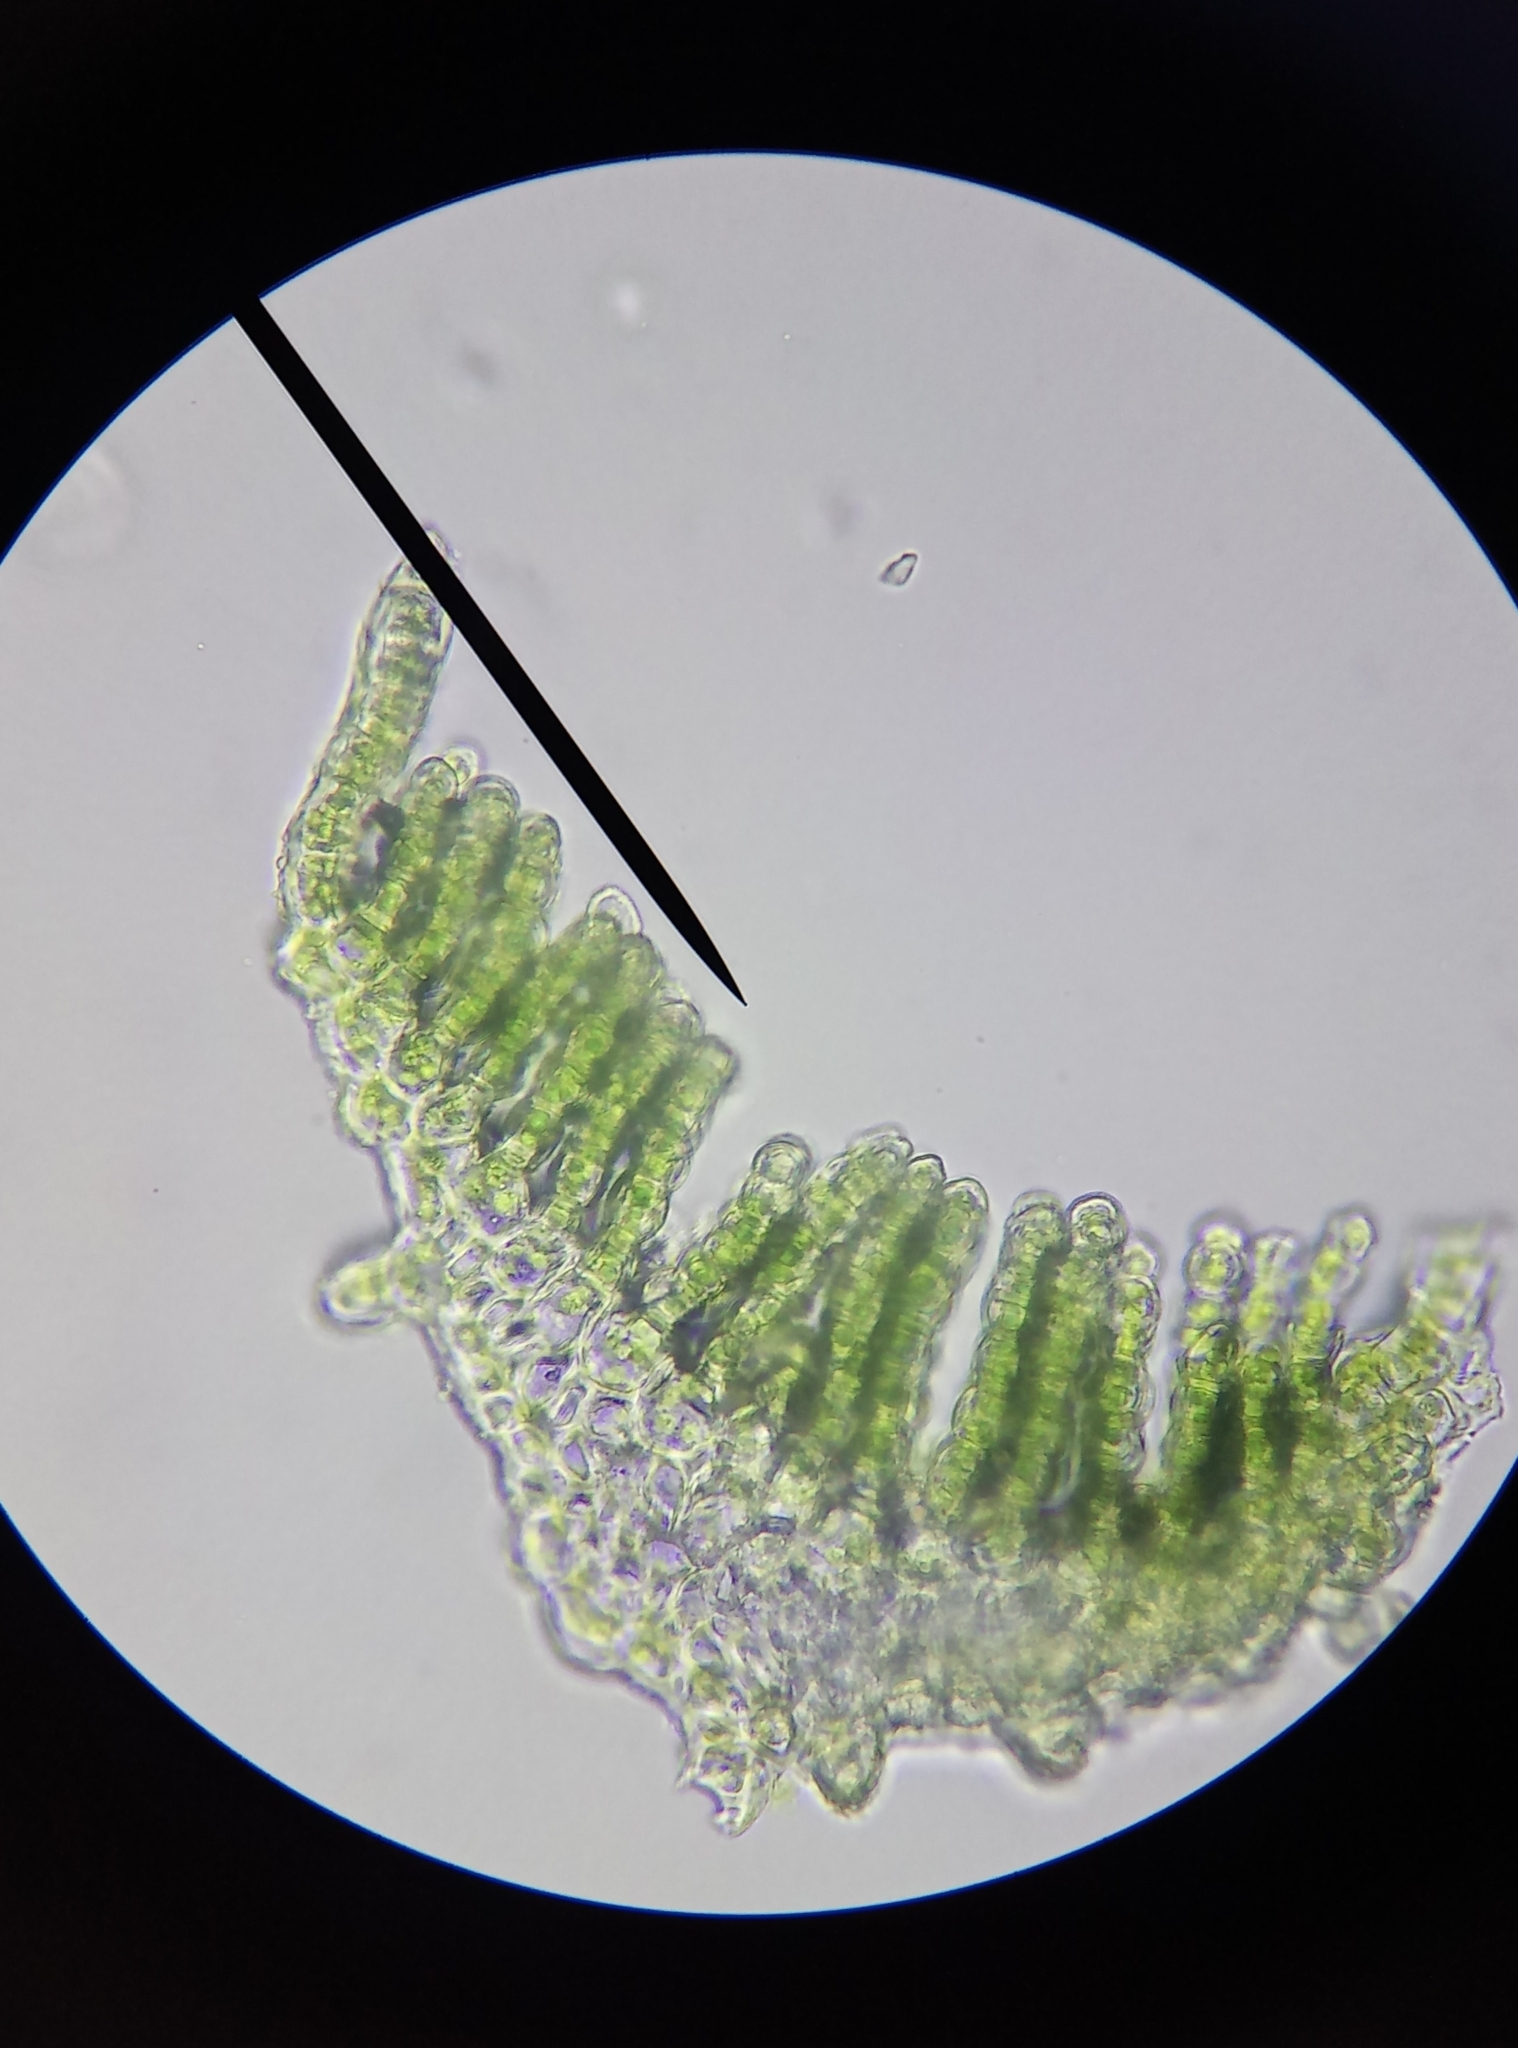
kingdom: Plantae
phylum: Bryophyta
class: Polytrichopsida
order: Polytrichales
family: Polytrichaceae
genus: Pogonatum
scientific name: Pogonatum aloides
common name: Aloe haircap
